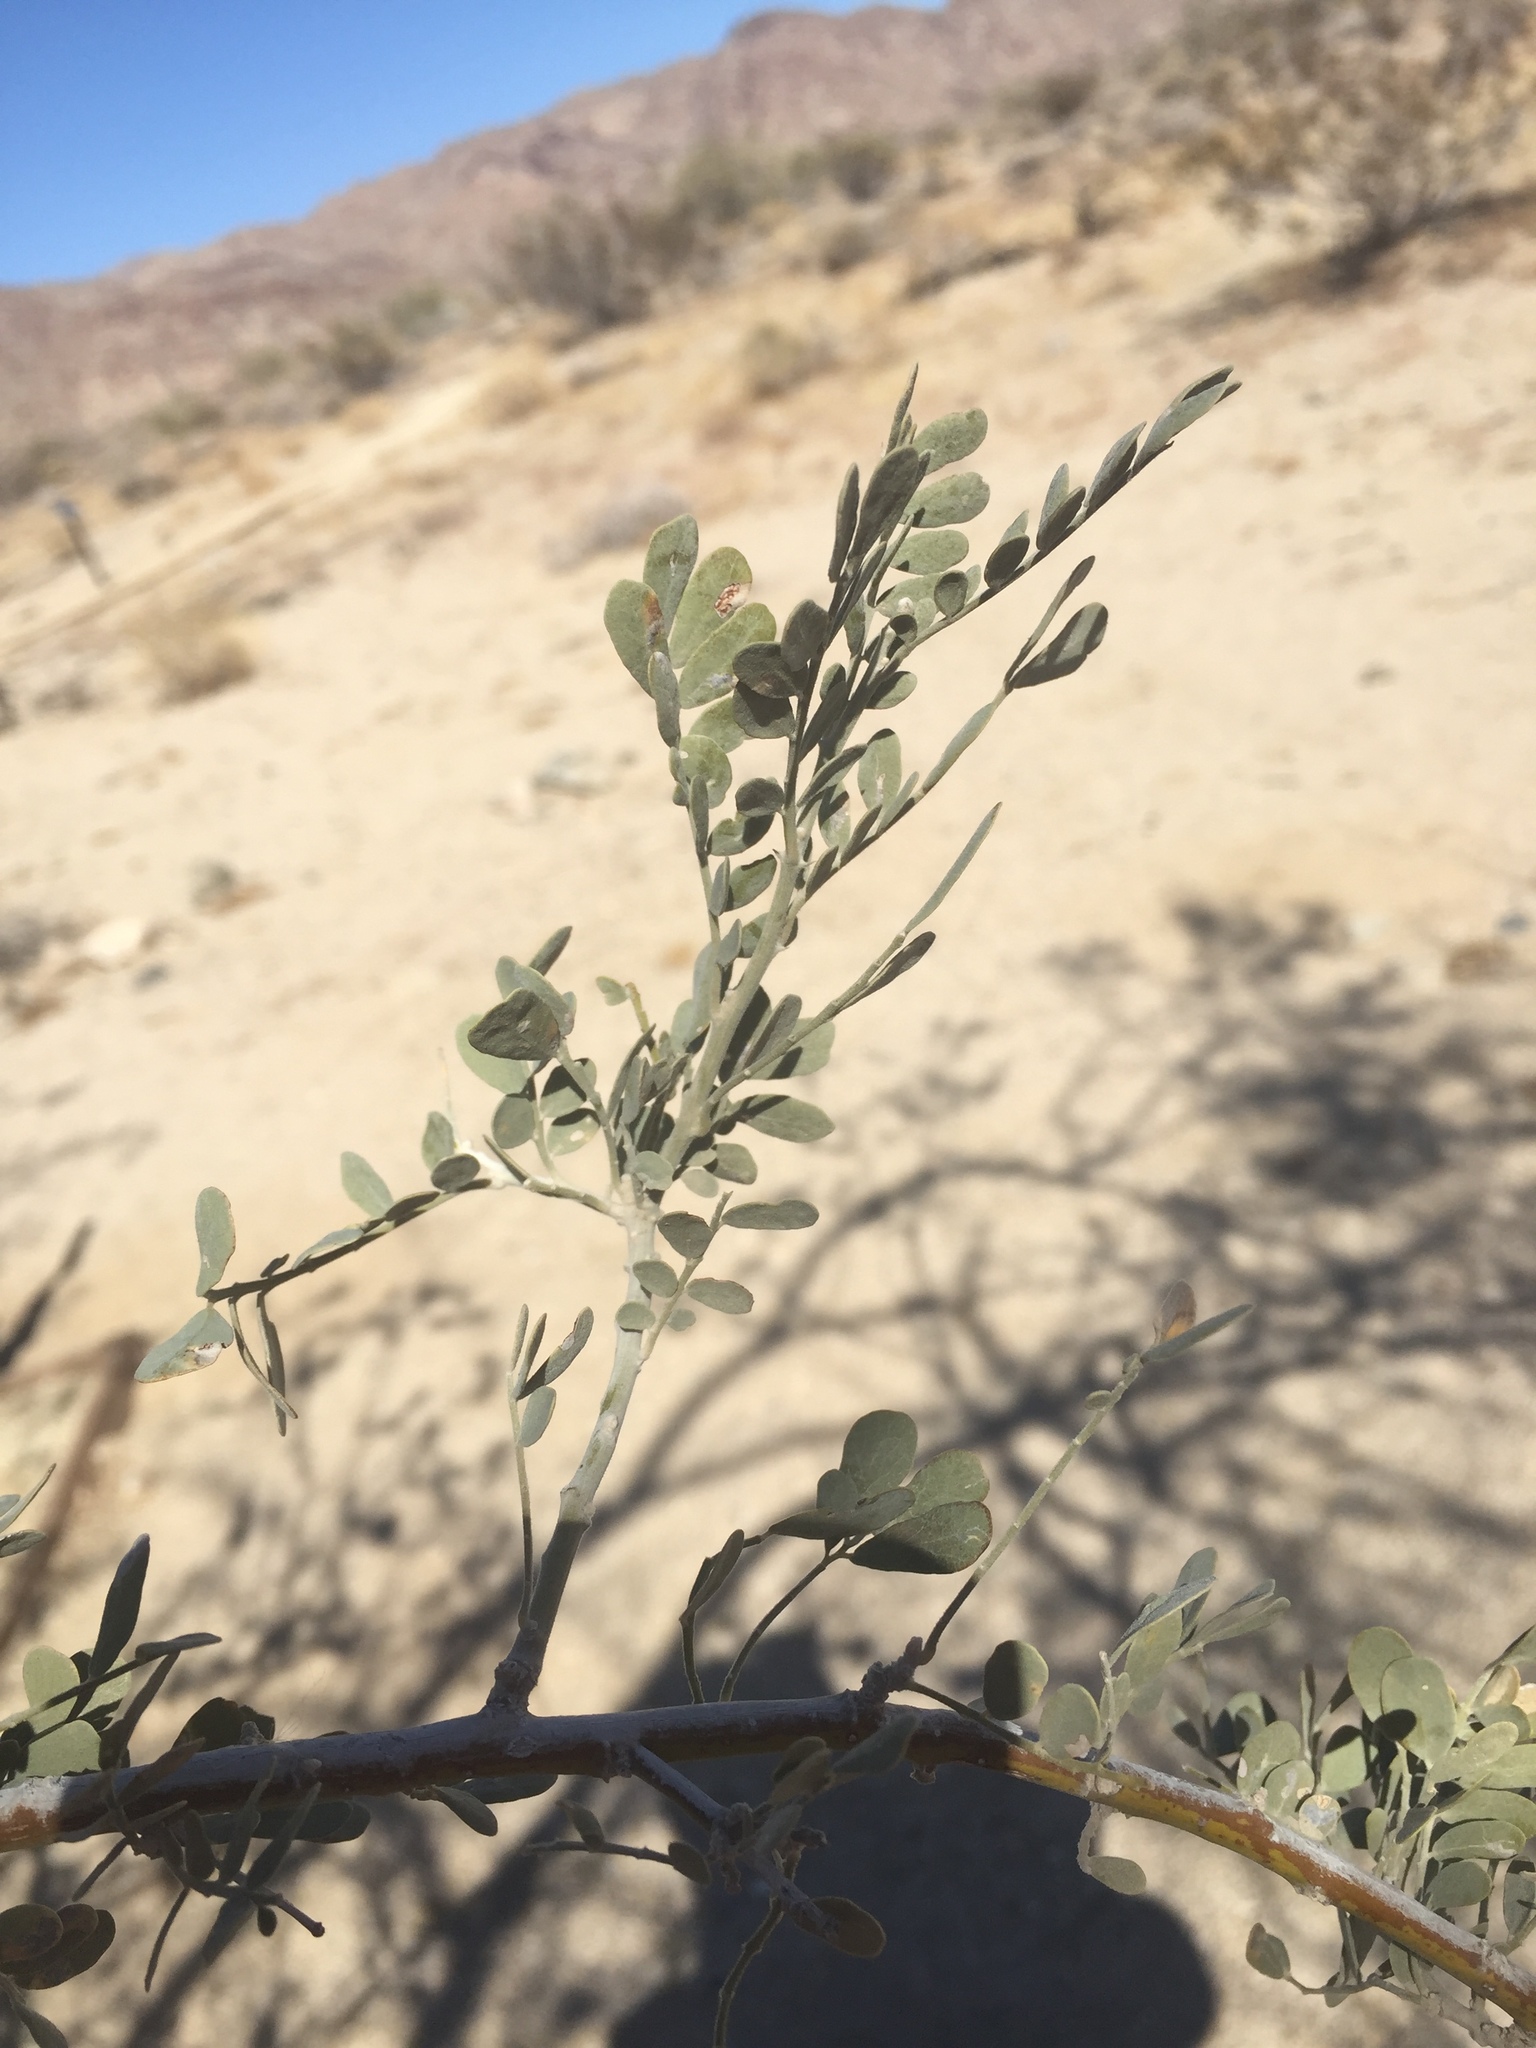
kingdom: Plantae
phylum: Tracheophyta
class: Magnoliopsida
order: Fabales
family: Fabaceae
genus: Olneya
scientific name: Olneya tesota
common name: Desert ironwood
